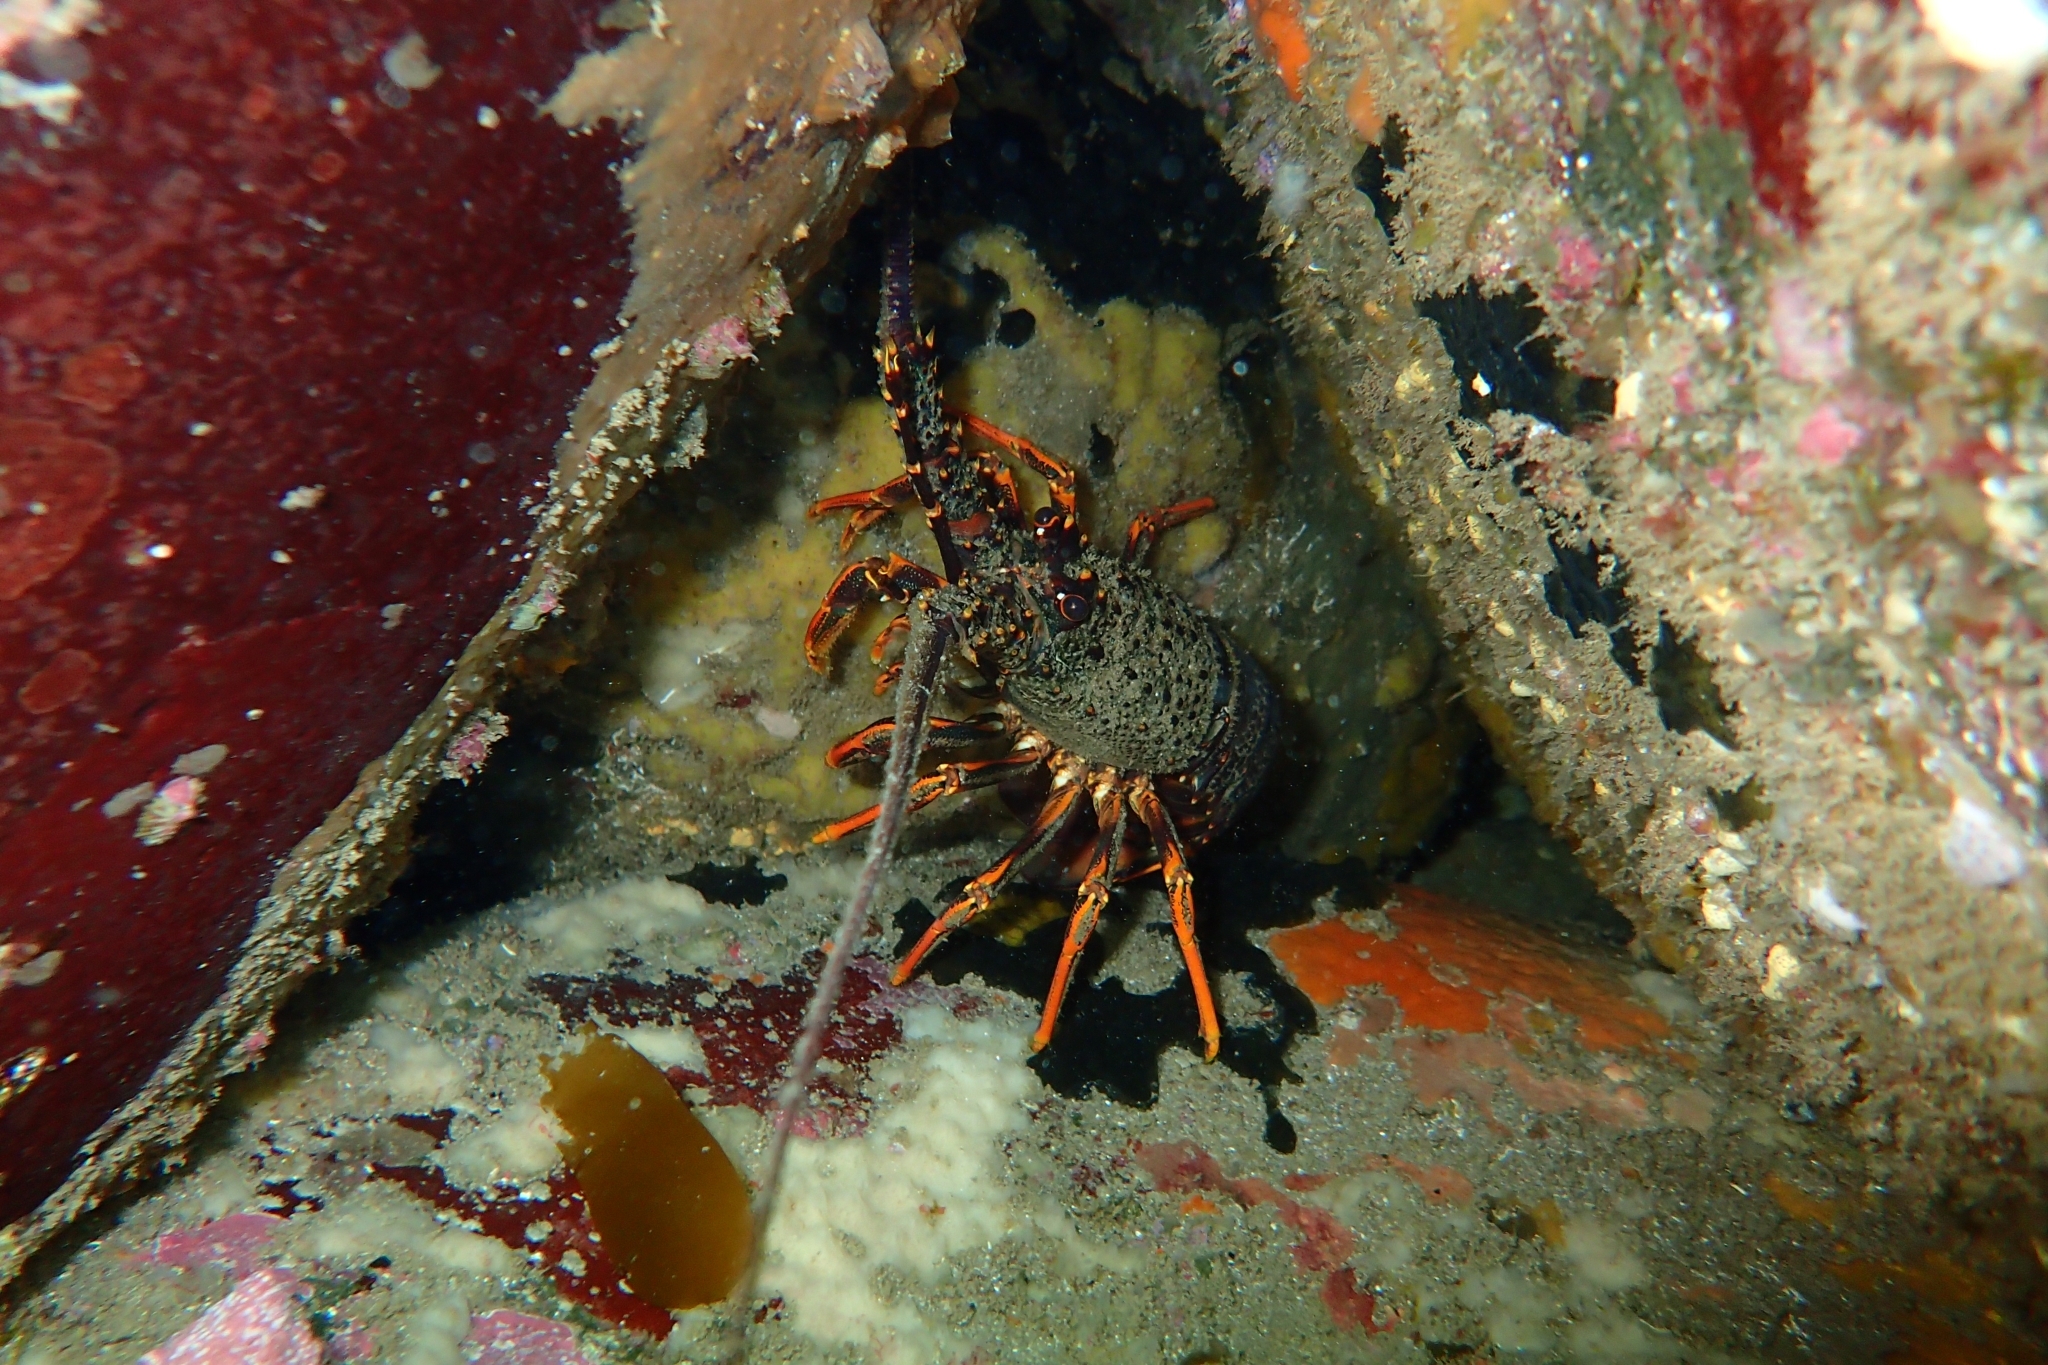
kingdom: Animalia
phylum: Arthropoda
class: Malacostraca
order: Decapoda
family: Palinuridae
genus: Jasus
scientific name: Jasus edwardsii
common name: Red rock lobster
